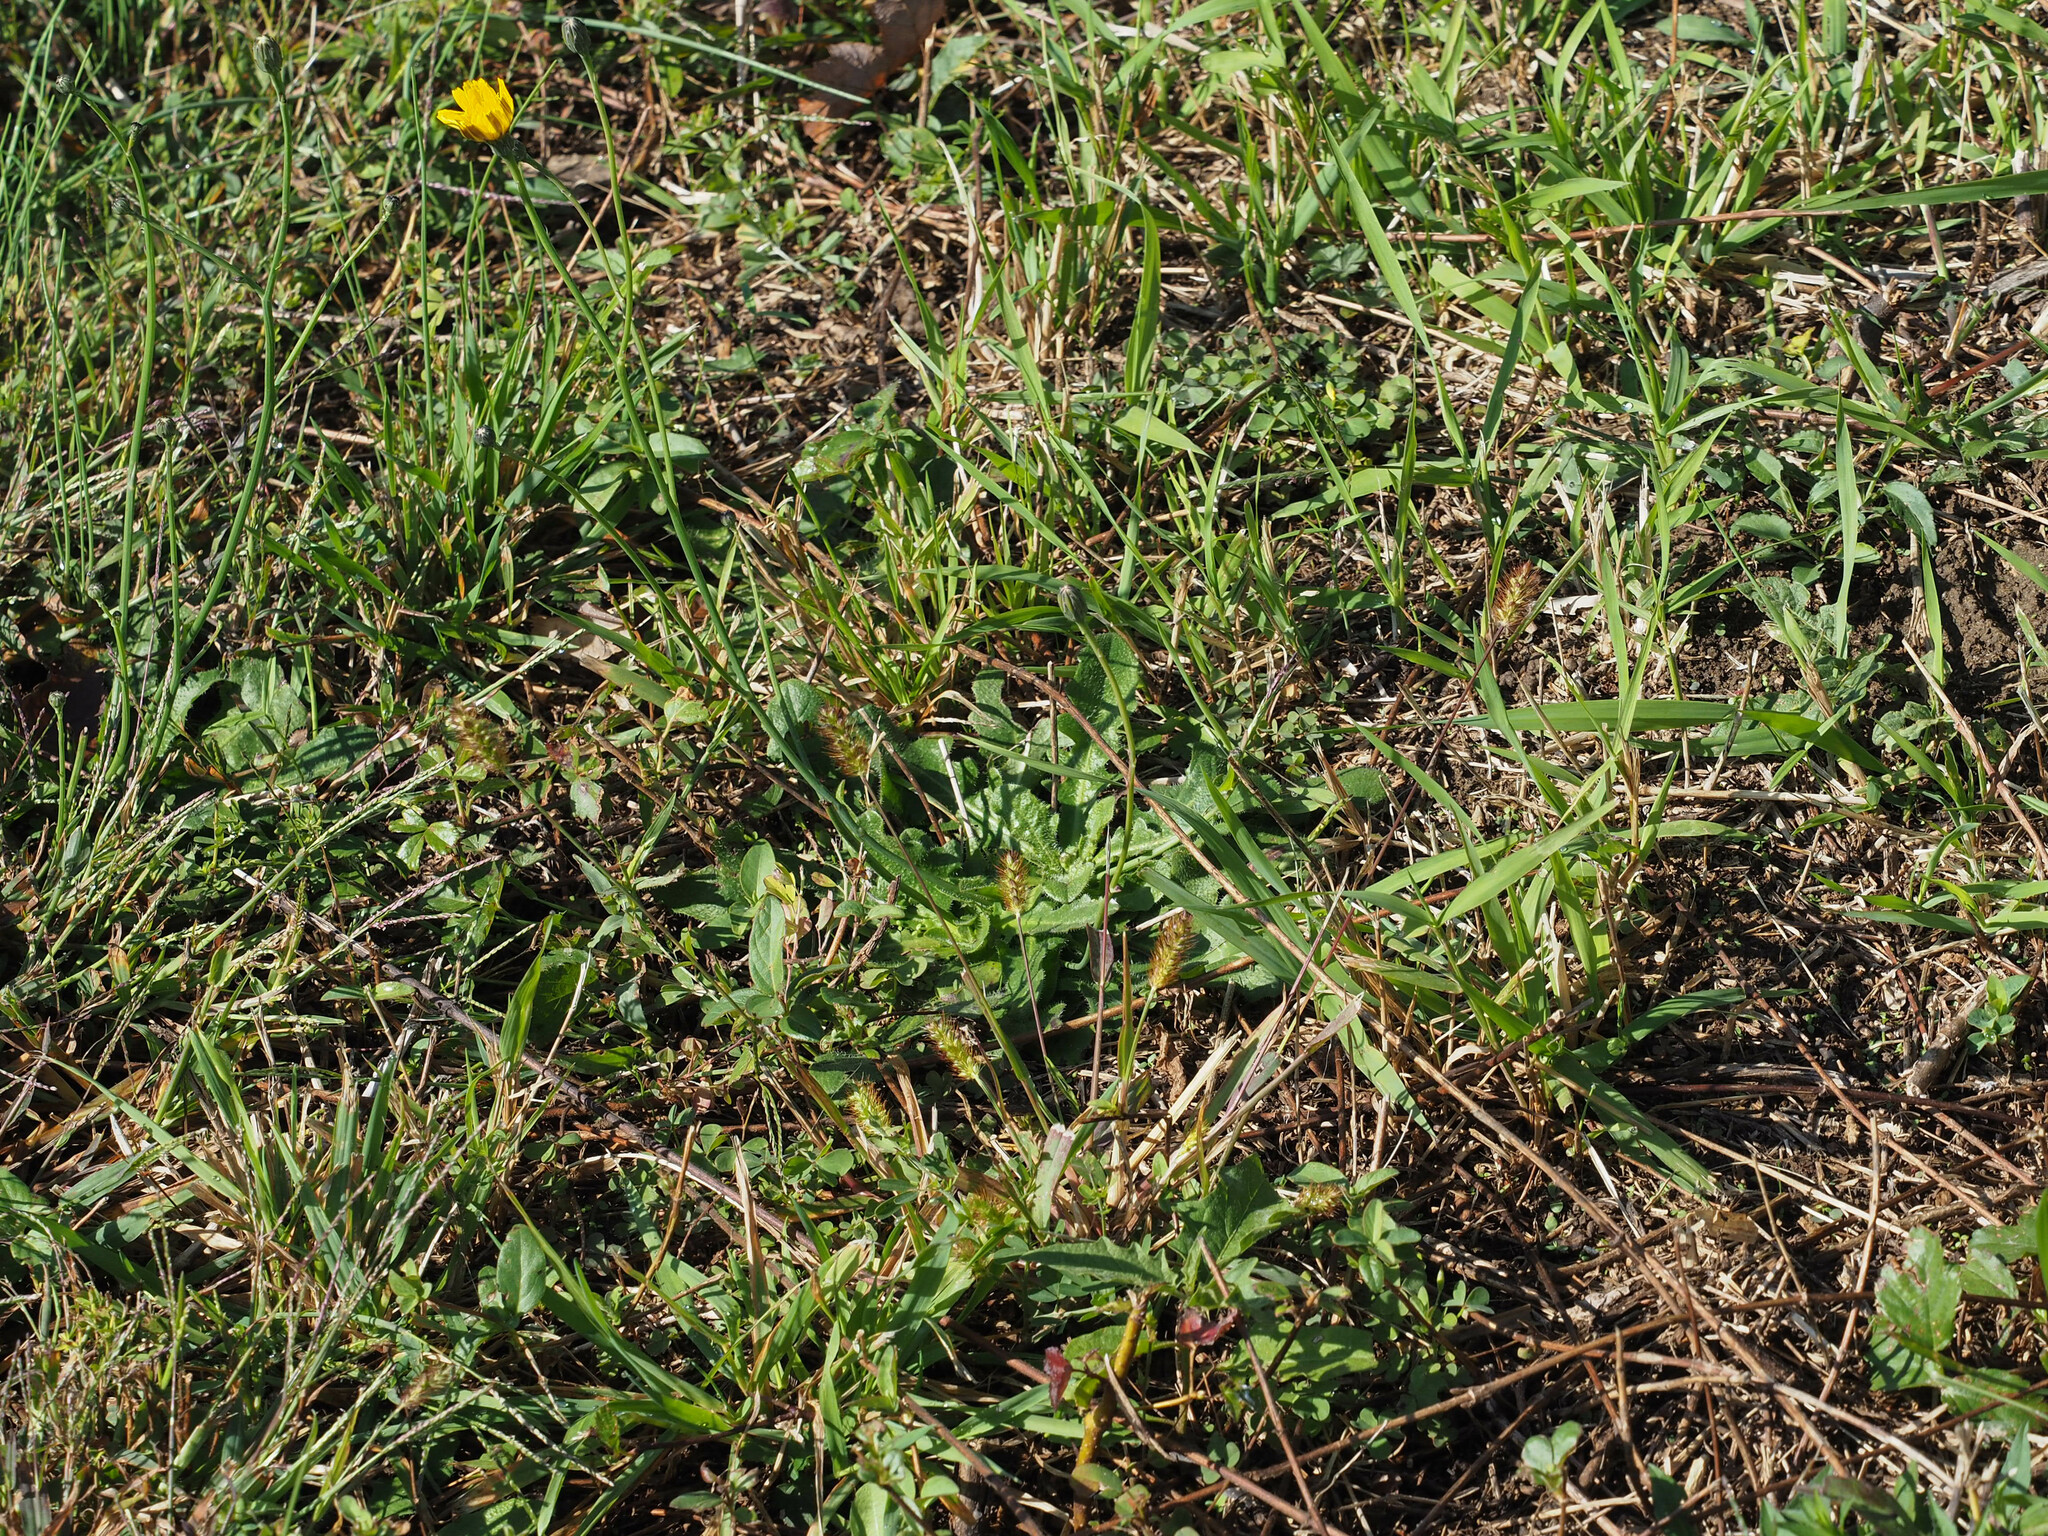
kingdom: Plantae
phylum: Tracheophyta
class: Magnoliopsida
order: Asterales
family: Asteraceae
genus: Hypochaeris
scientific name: Hypochaeris radicata
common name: Flatweed
